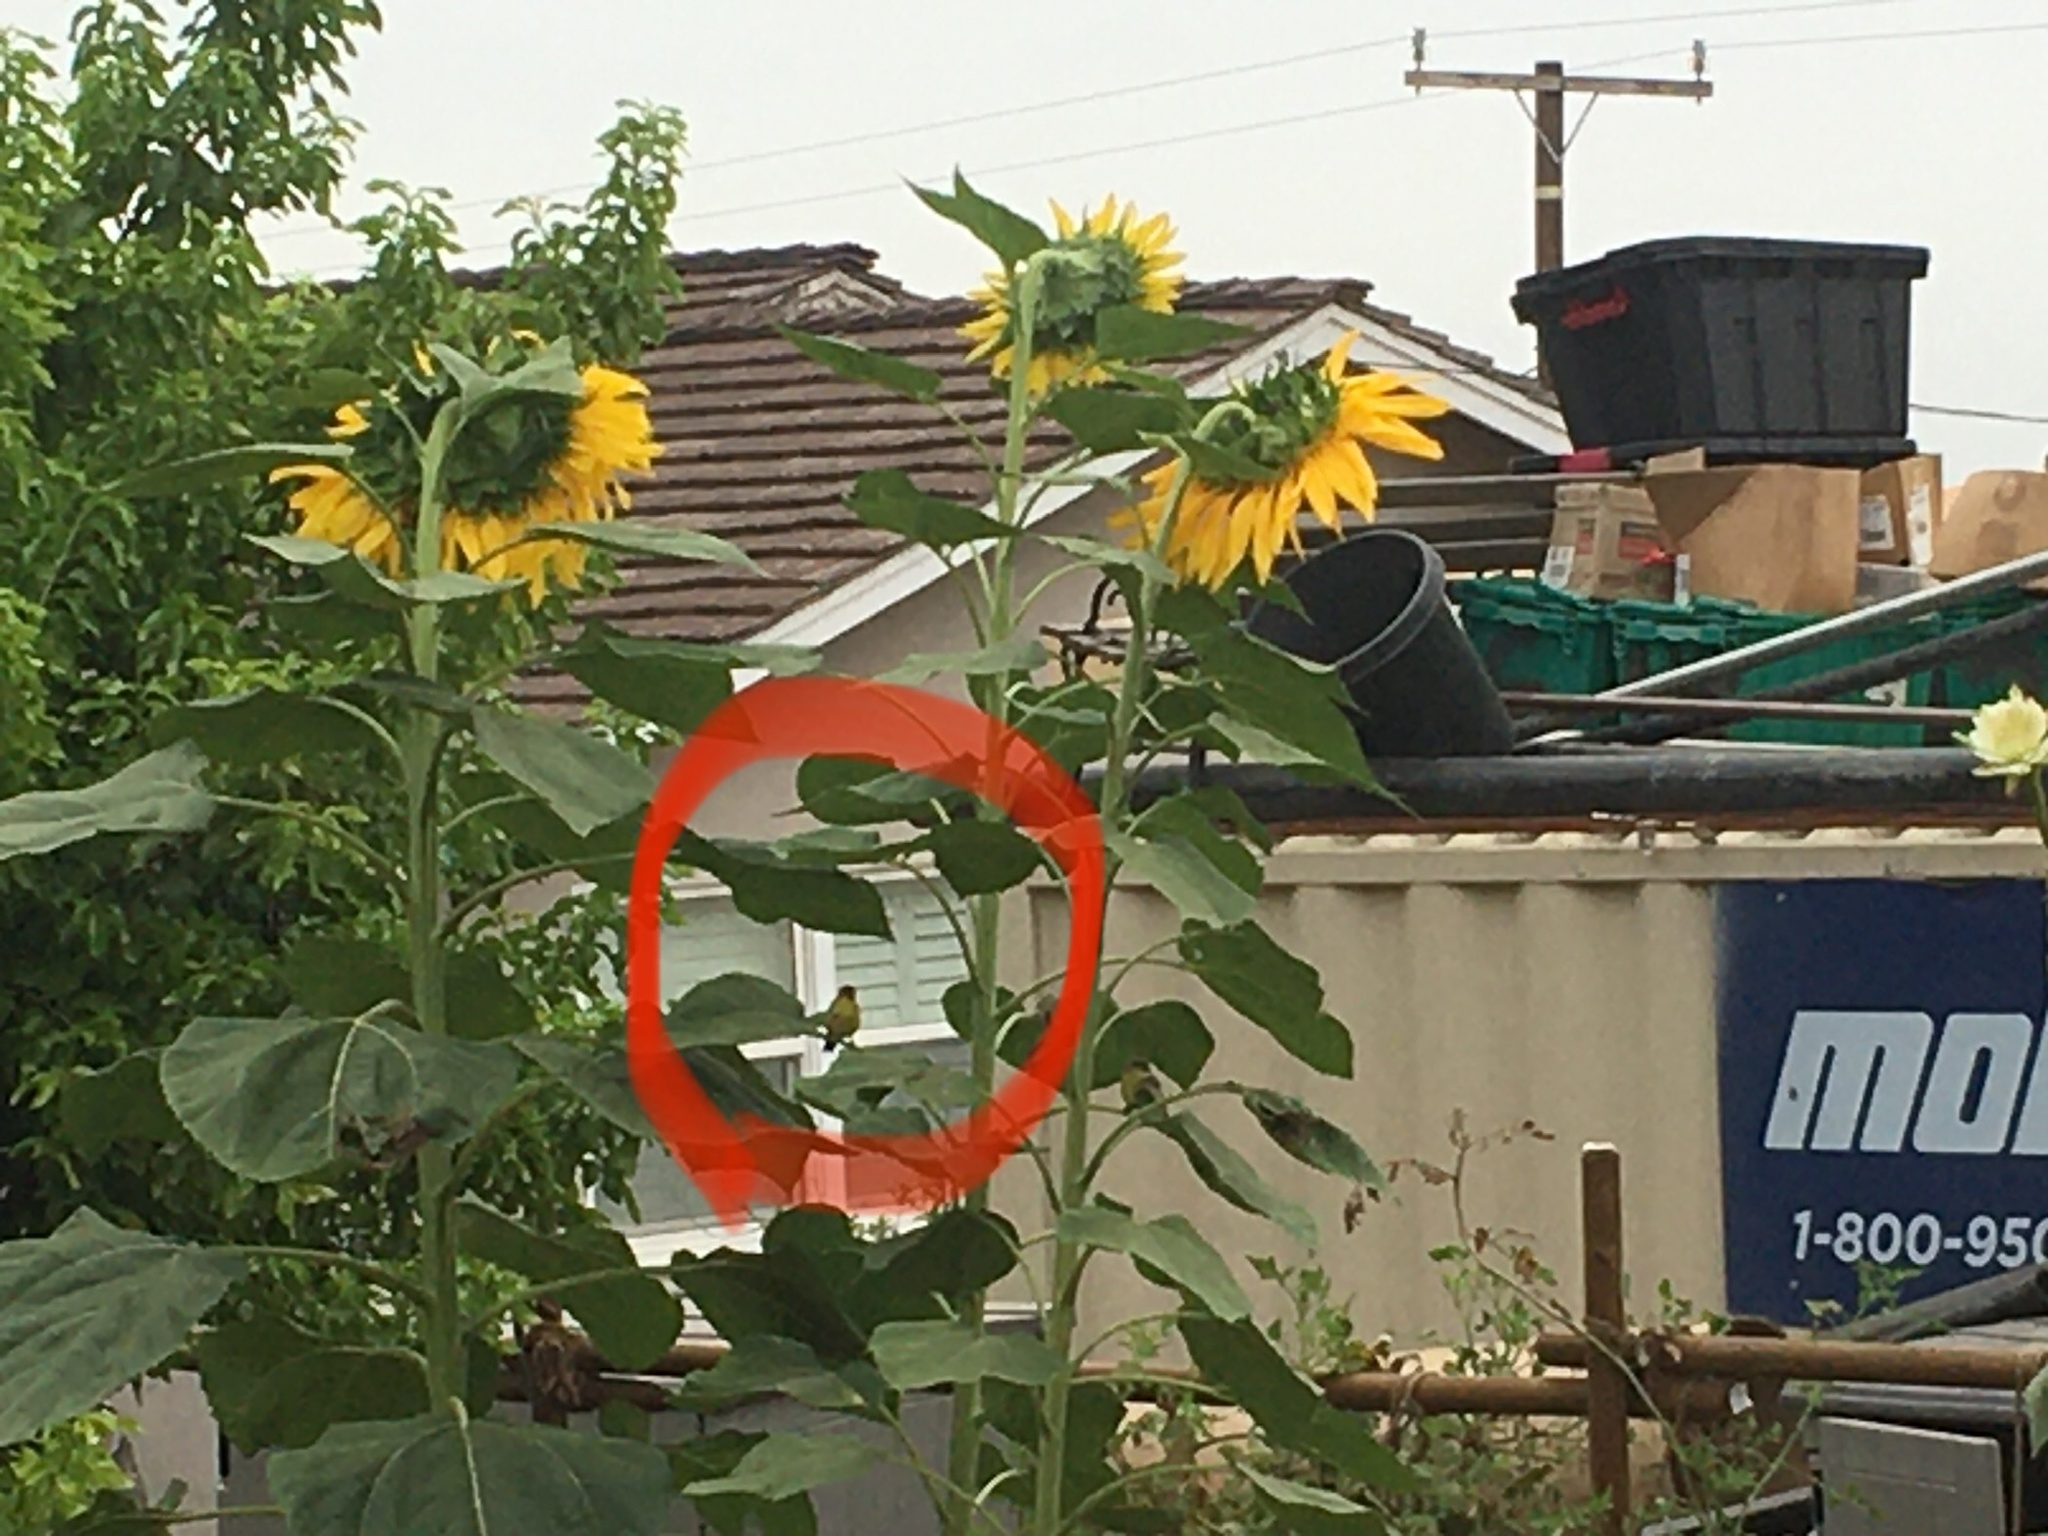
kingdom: Animalia
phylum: Chordata
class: Aves
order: Passeriformes
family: Fringillidae
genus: Spinus
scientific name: Spinus psaltria
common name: Lesser goldfinch
